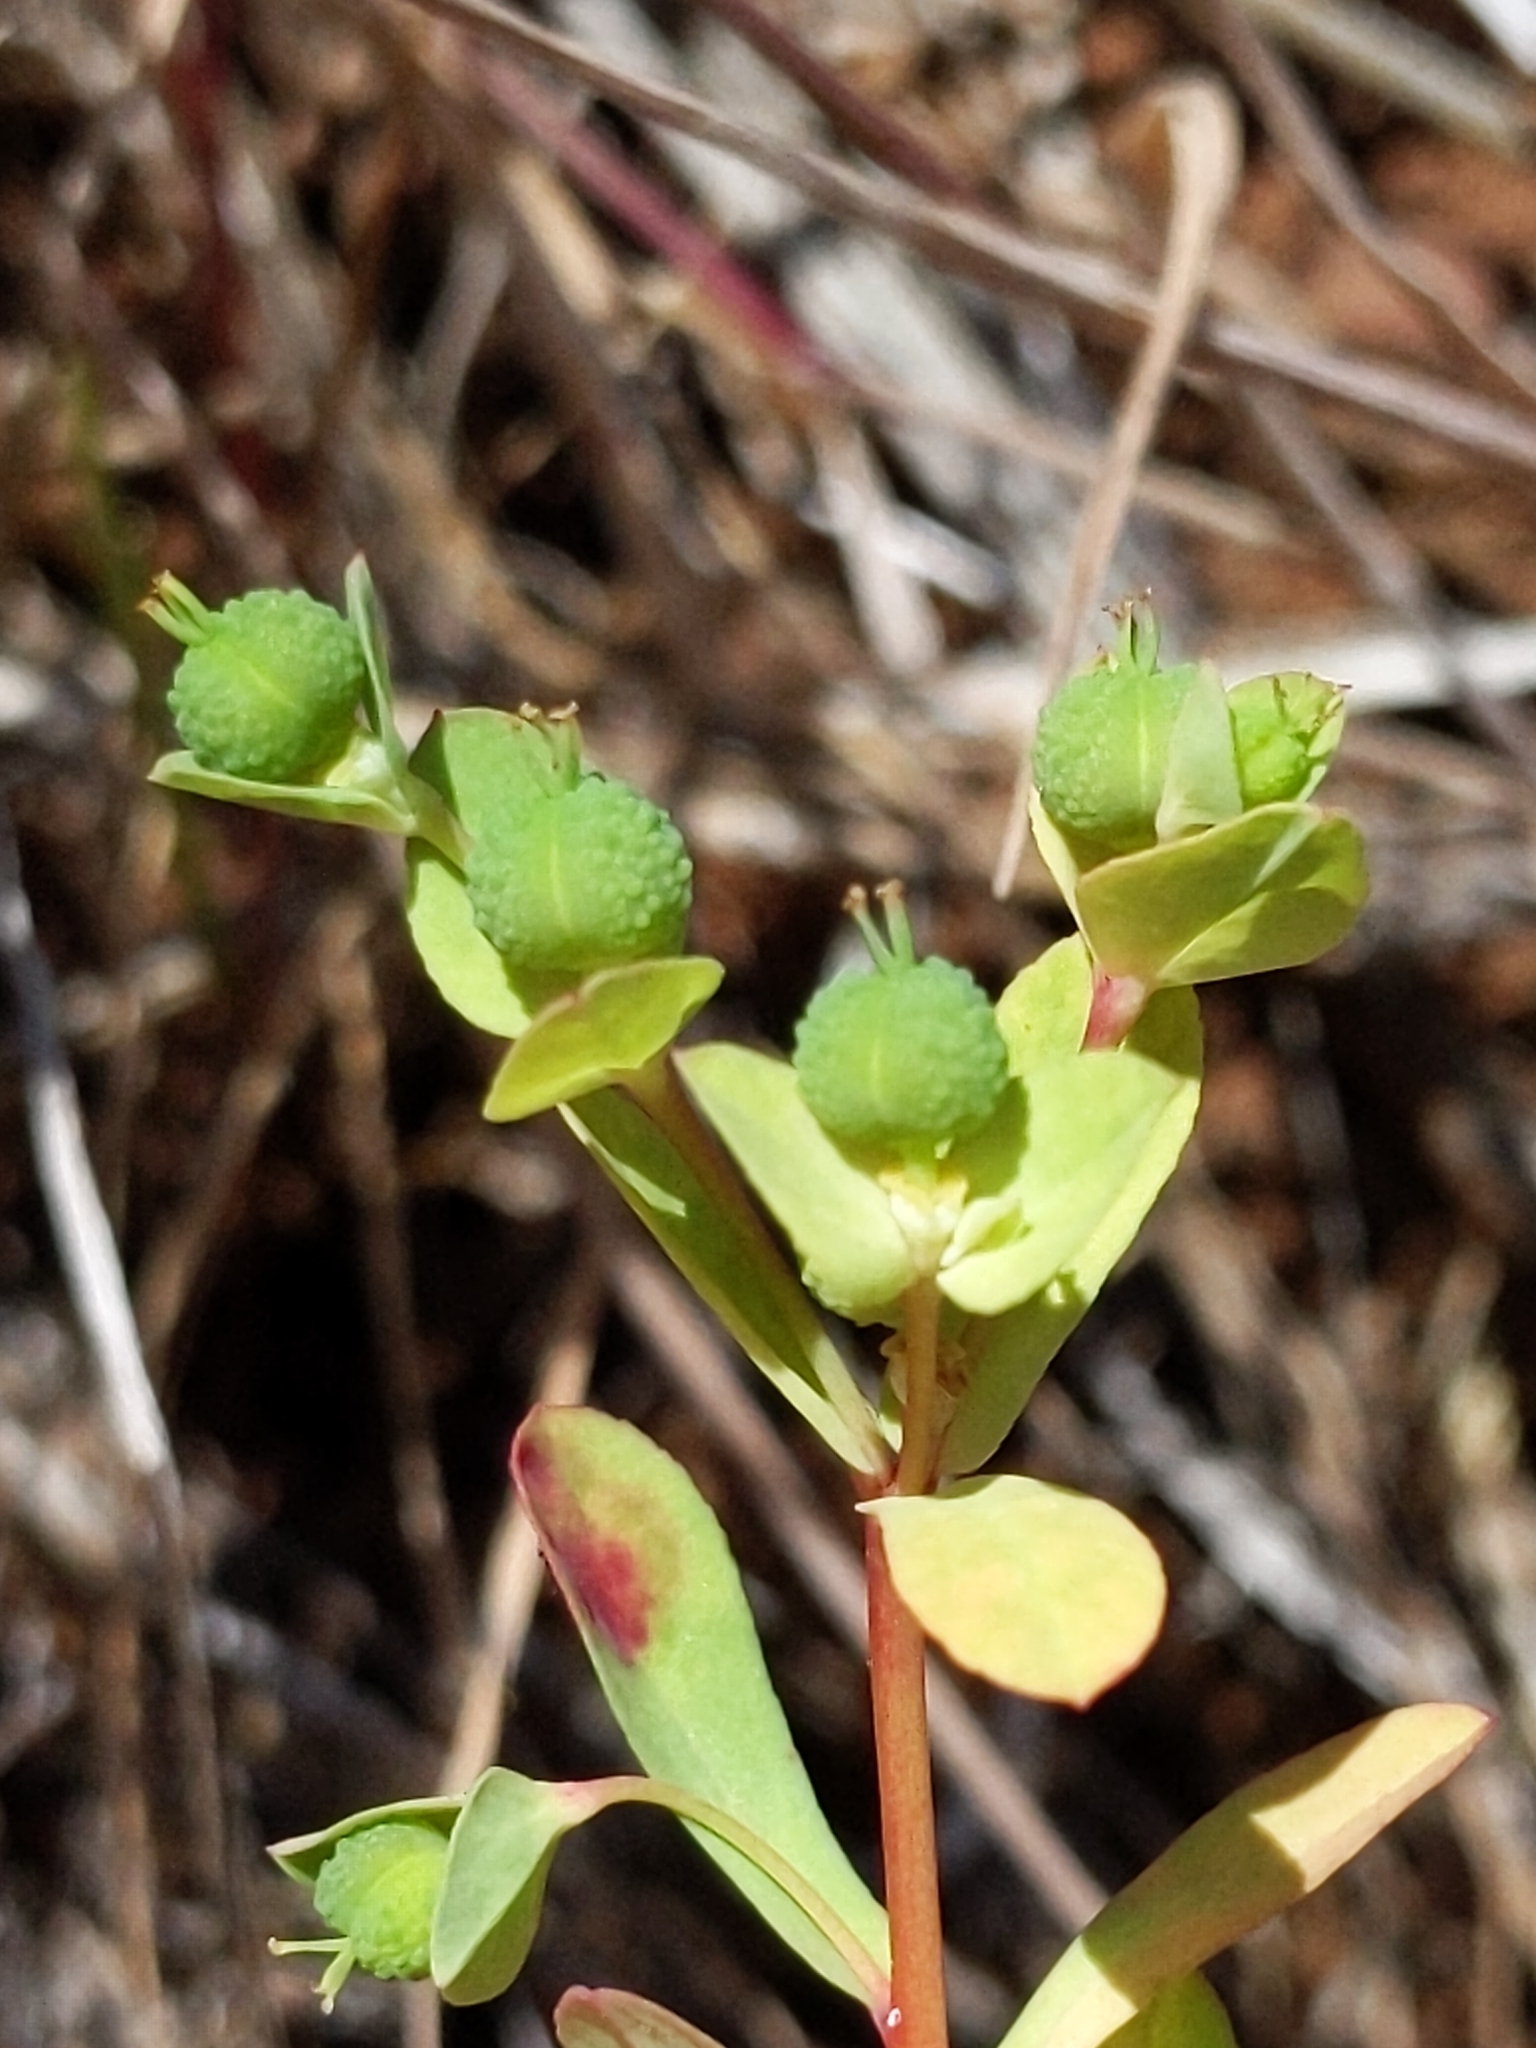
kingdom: Plantae
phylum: Tracheophyta
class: Magnoliopsida
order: Malpighiales
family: Euphorbiaceae
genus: Euphorbia
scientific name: Euphorbia spathulata
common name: Blunt spurge
